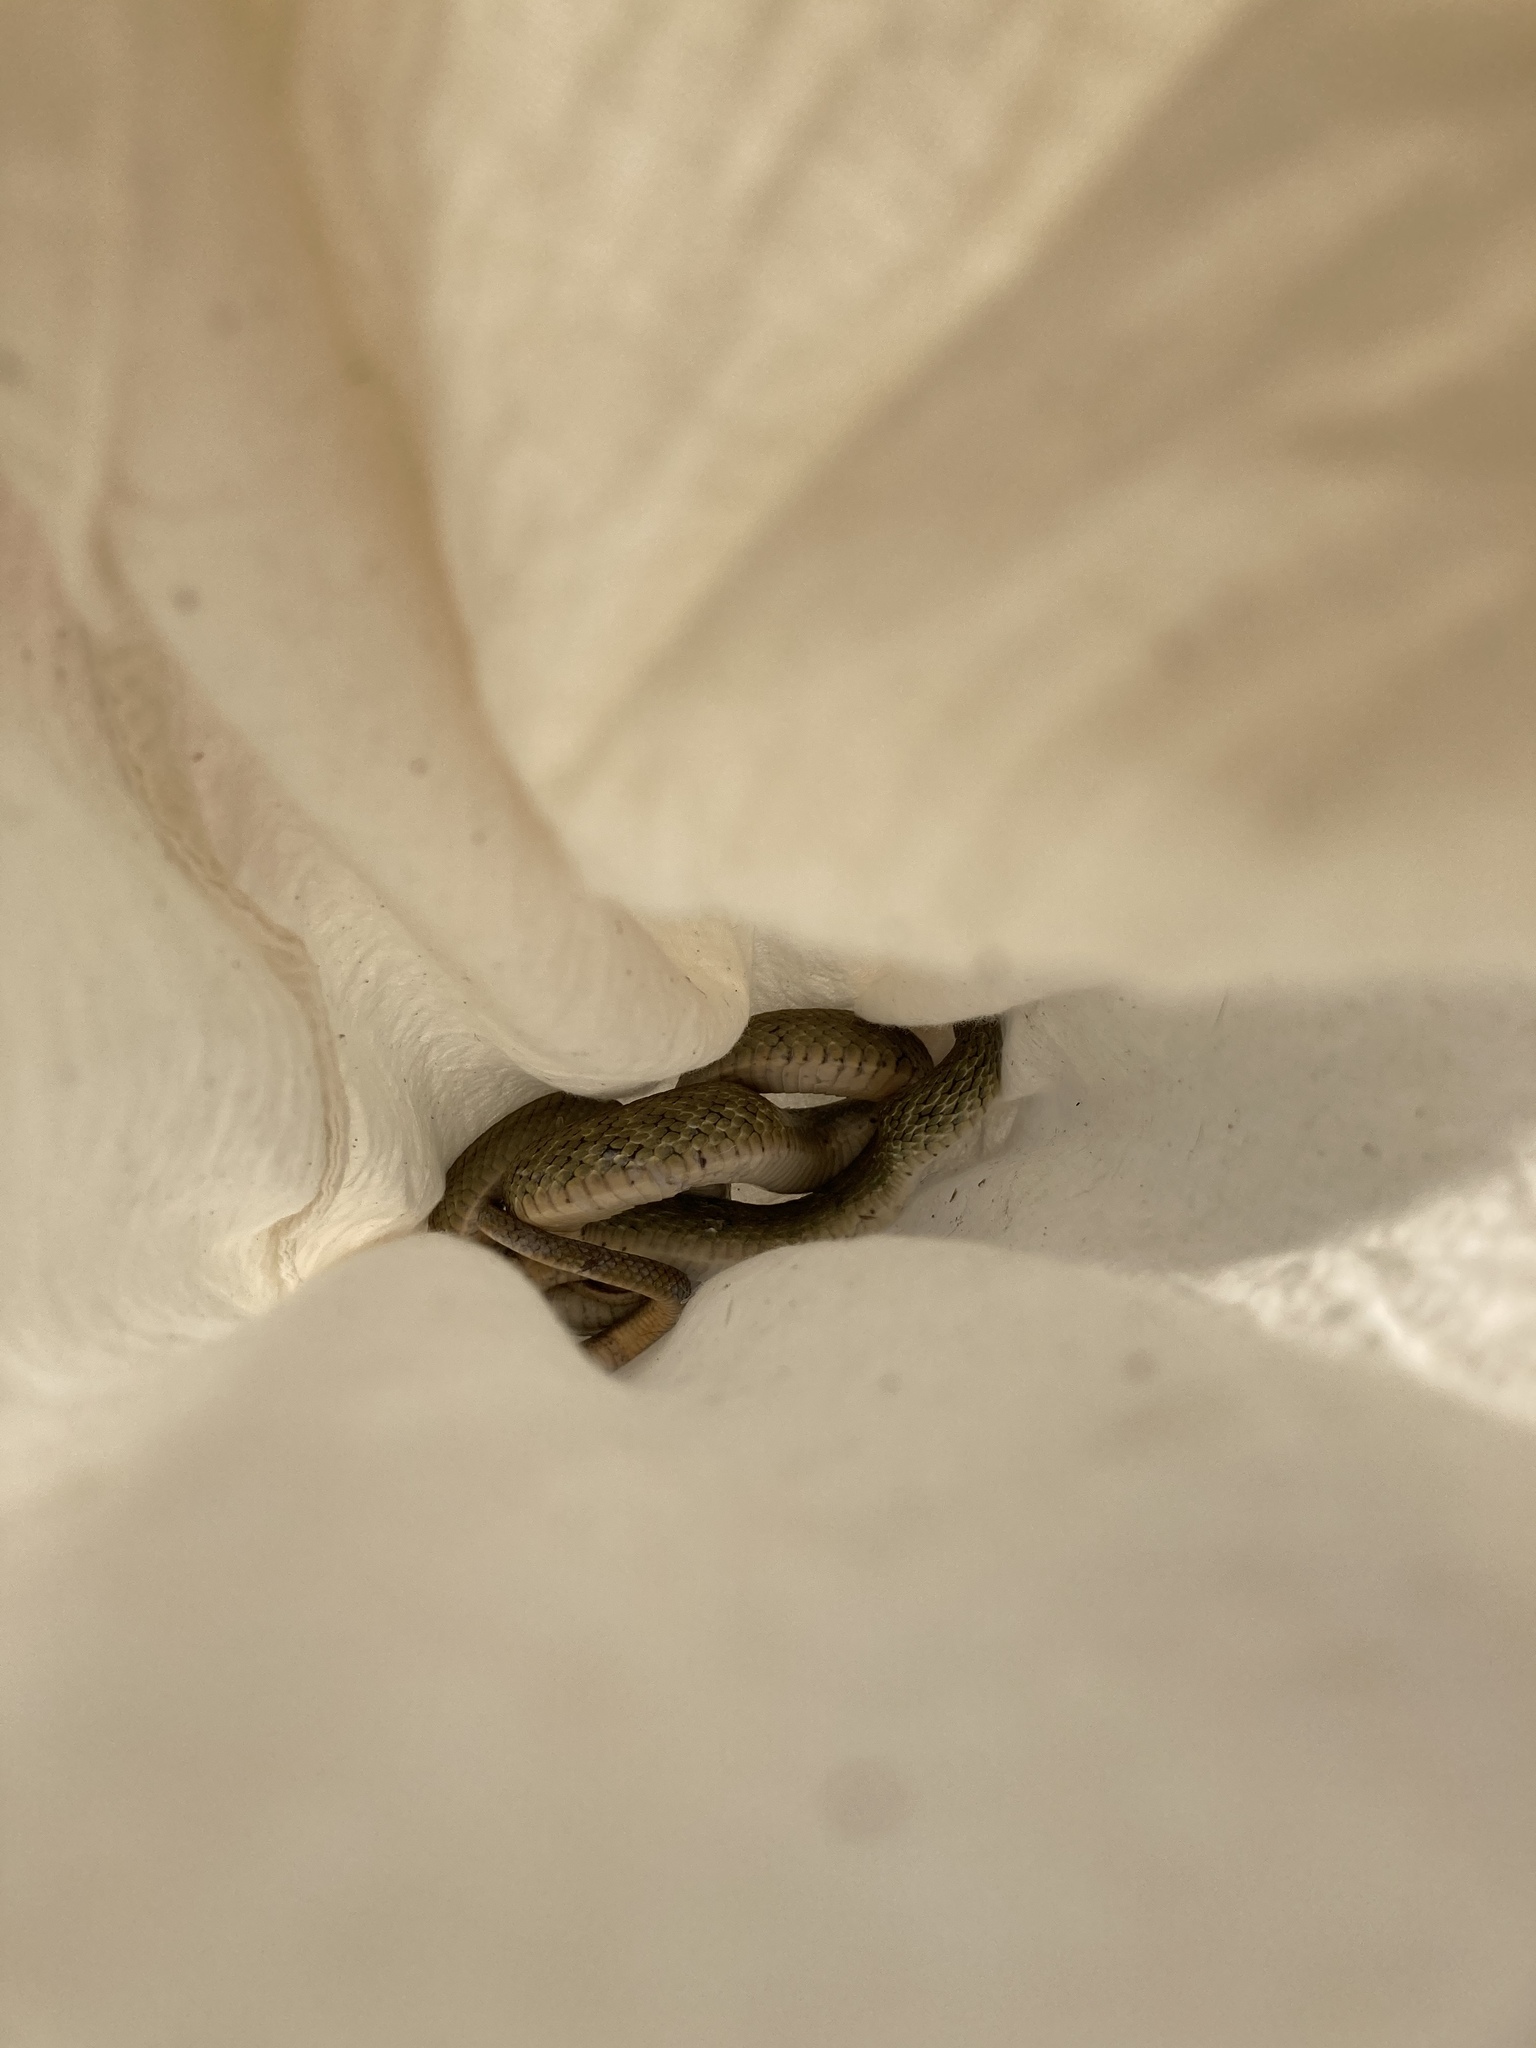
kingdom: Animalia
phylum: Chordata
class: Squamata
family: Colubridae
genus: Elaphe
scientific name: Elaphe carinata
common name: Taiwan stink snake
